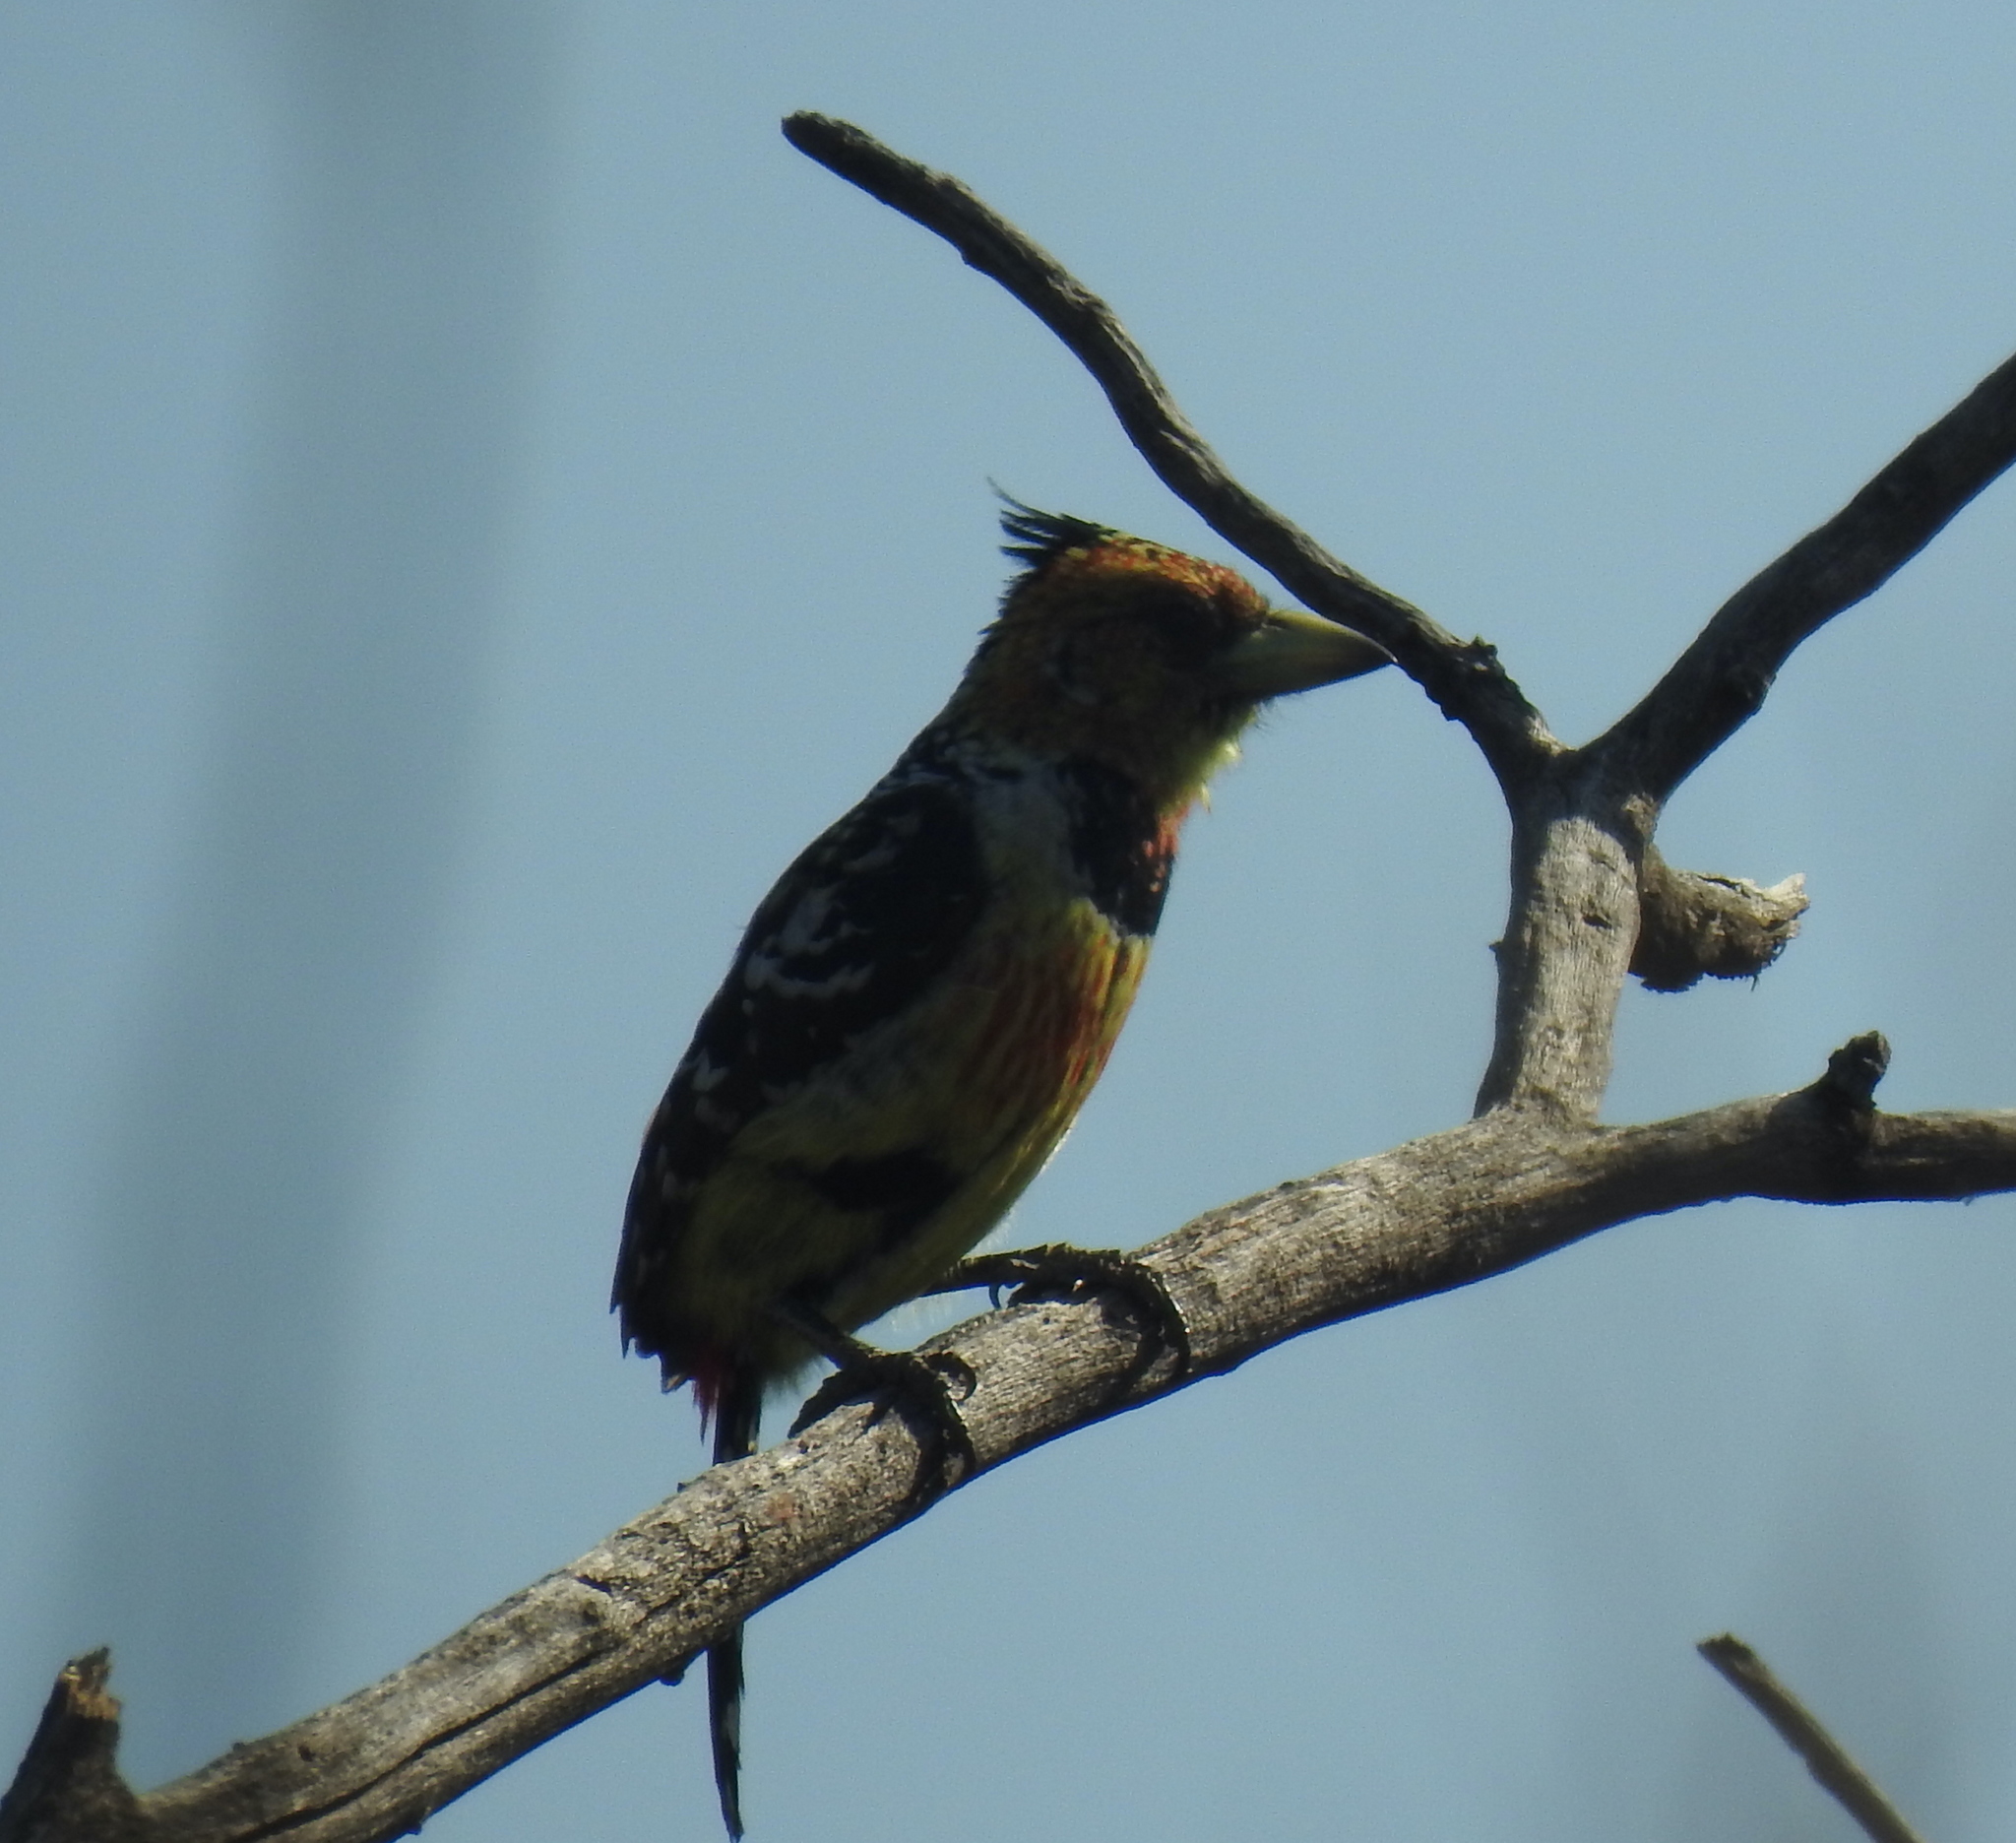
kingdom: Animalia
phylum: Chordata
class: Aves
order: Piciformes
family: Lybiidae
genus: Trachyphonus
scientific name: Trachyphonus vaillantii
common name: Crested barbet
